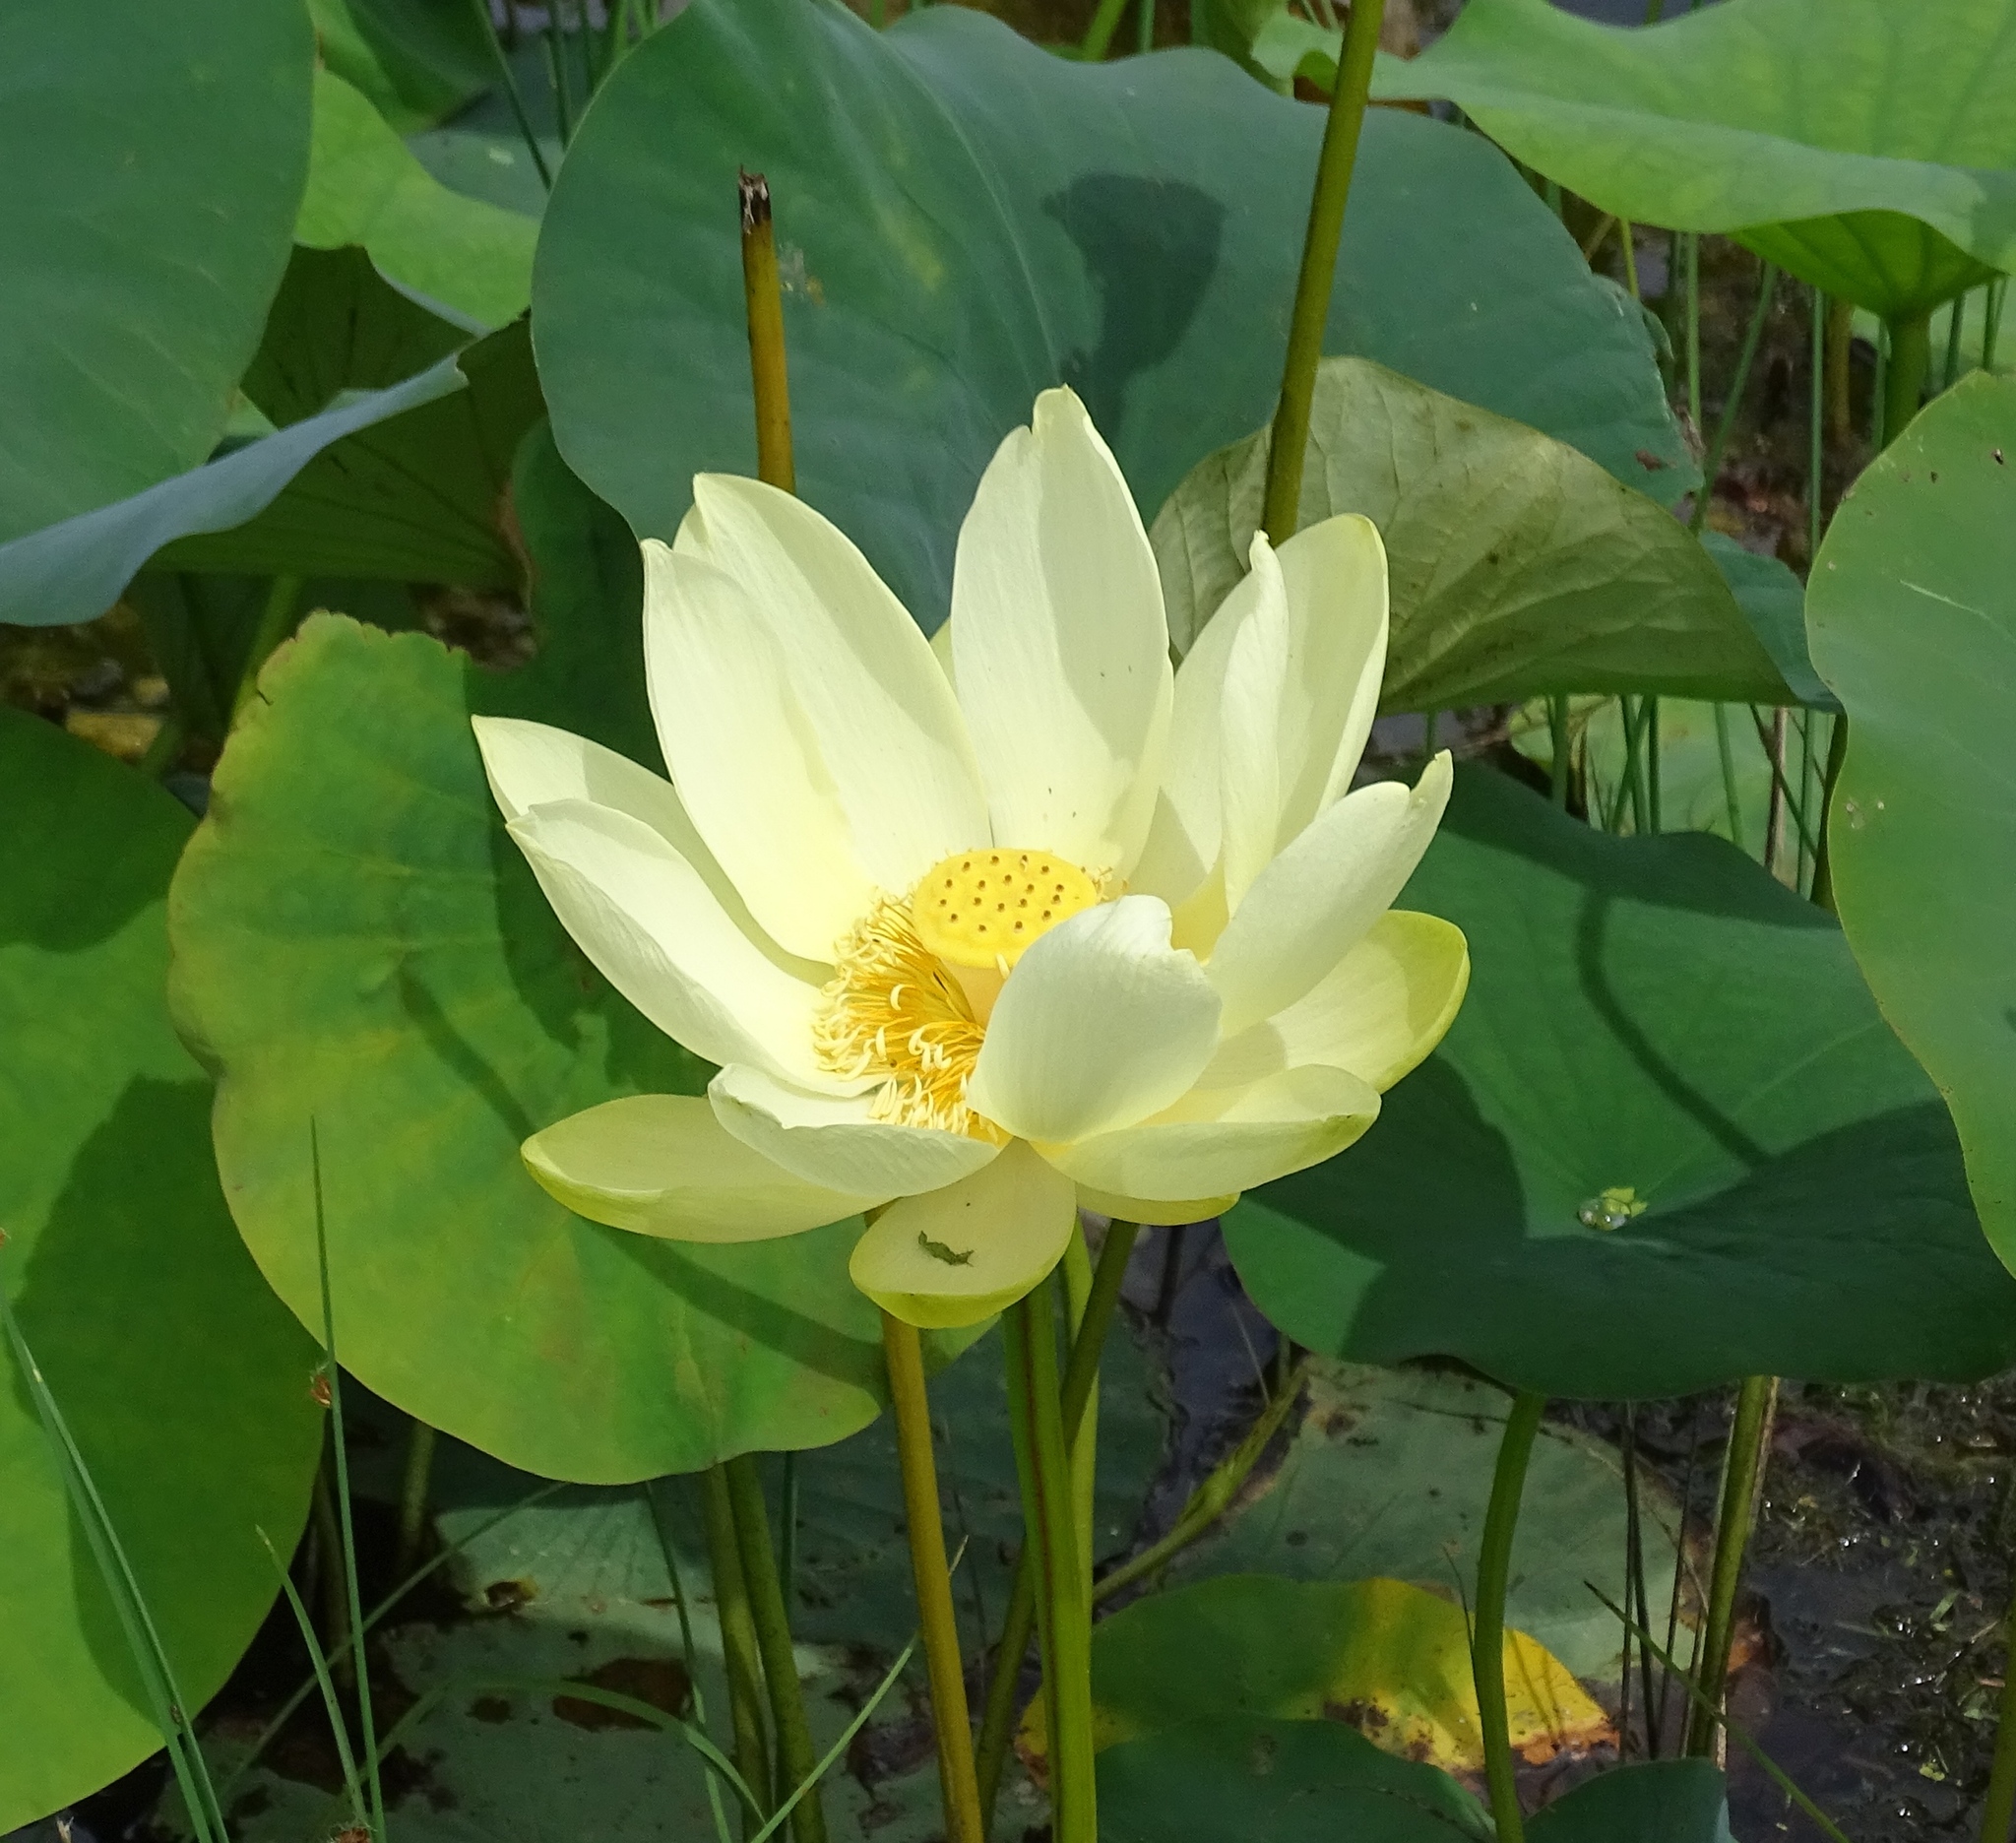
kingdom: Plantae
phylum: Tracheophyta
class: Magnoliopsida
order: Proteales
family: Nelumbonaceae
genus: Nelumbo
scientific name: Nelumbo lutea
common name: American lotus
